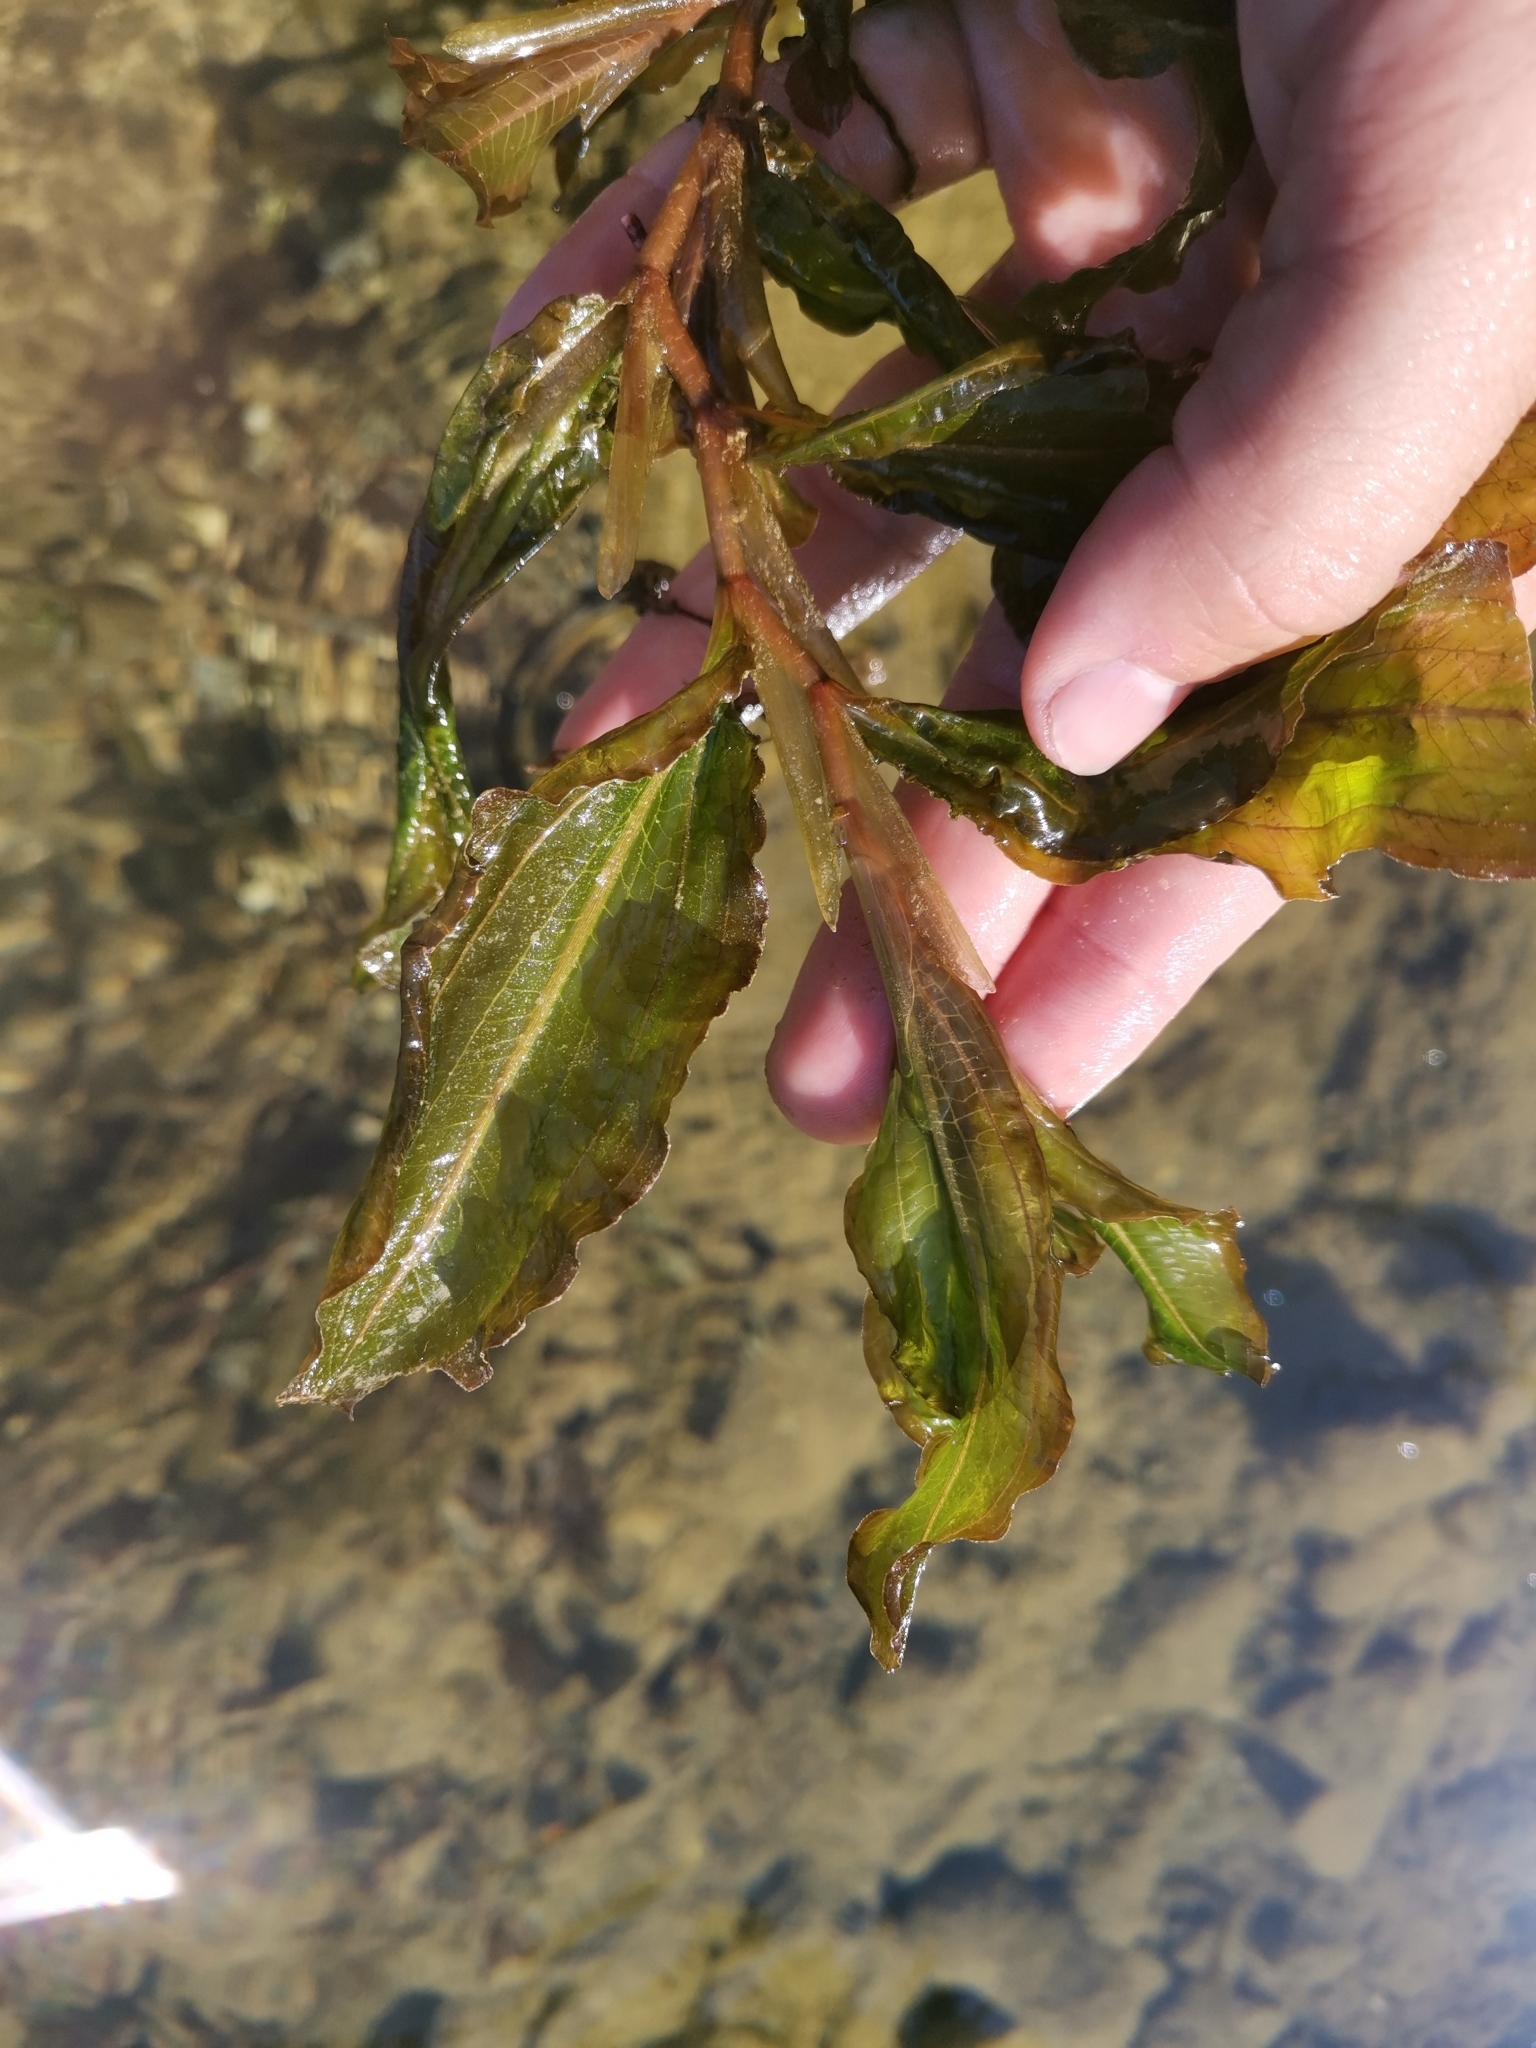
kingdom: Plantae
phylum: Tracheophyta
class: Liliopsida
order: Alismatales
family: Potamogetonaceae
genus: Potamogeton
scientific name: Potamogeton lucens
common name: Shining pondweed
